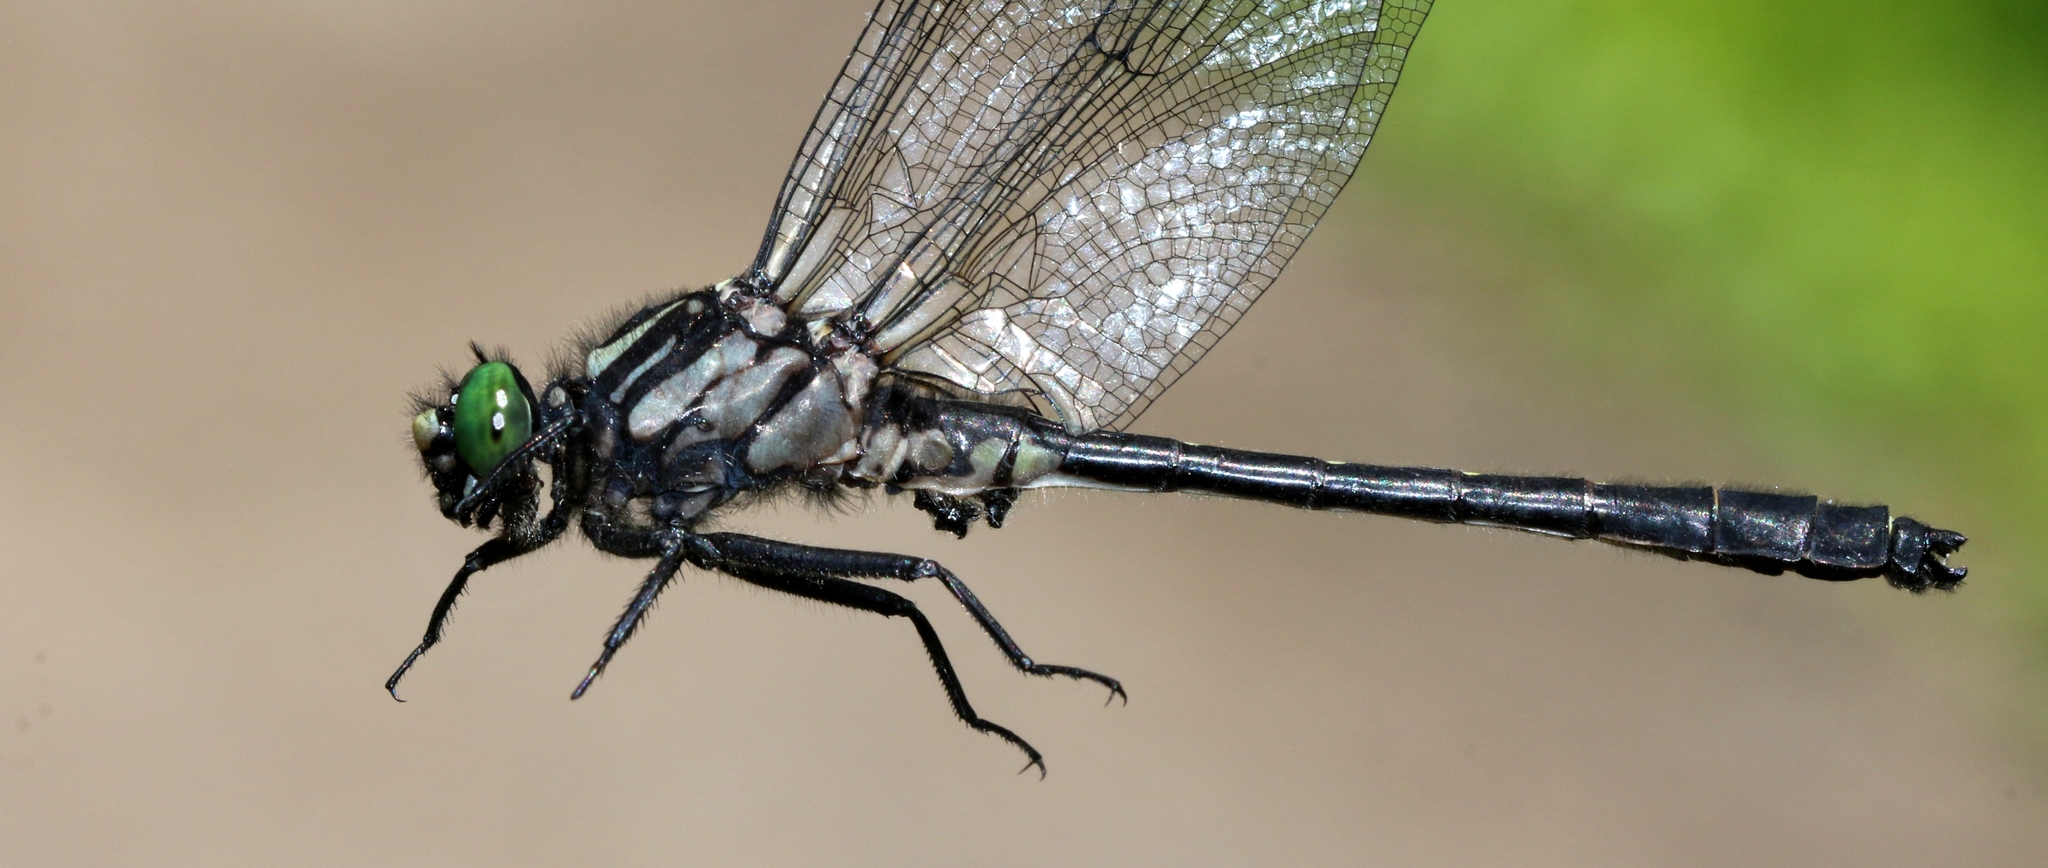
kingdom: Animalia
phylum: Arthropoda
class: Insecta
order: Odonata
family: Gomphidae
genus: Hylogomphus
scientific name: Hylogomphus adelphus
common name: Mustached clubtail
